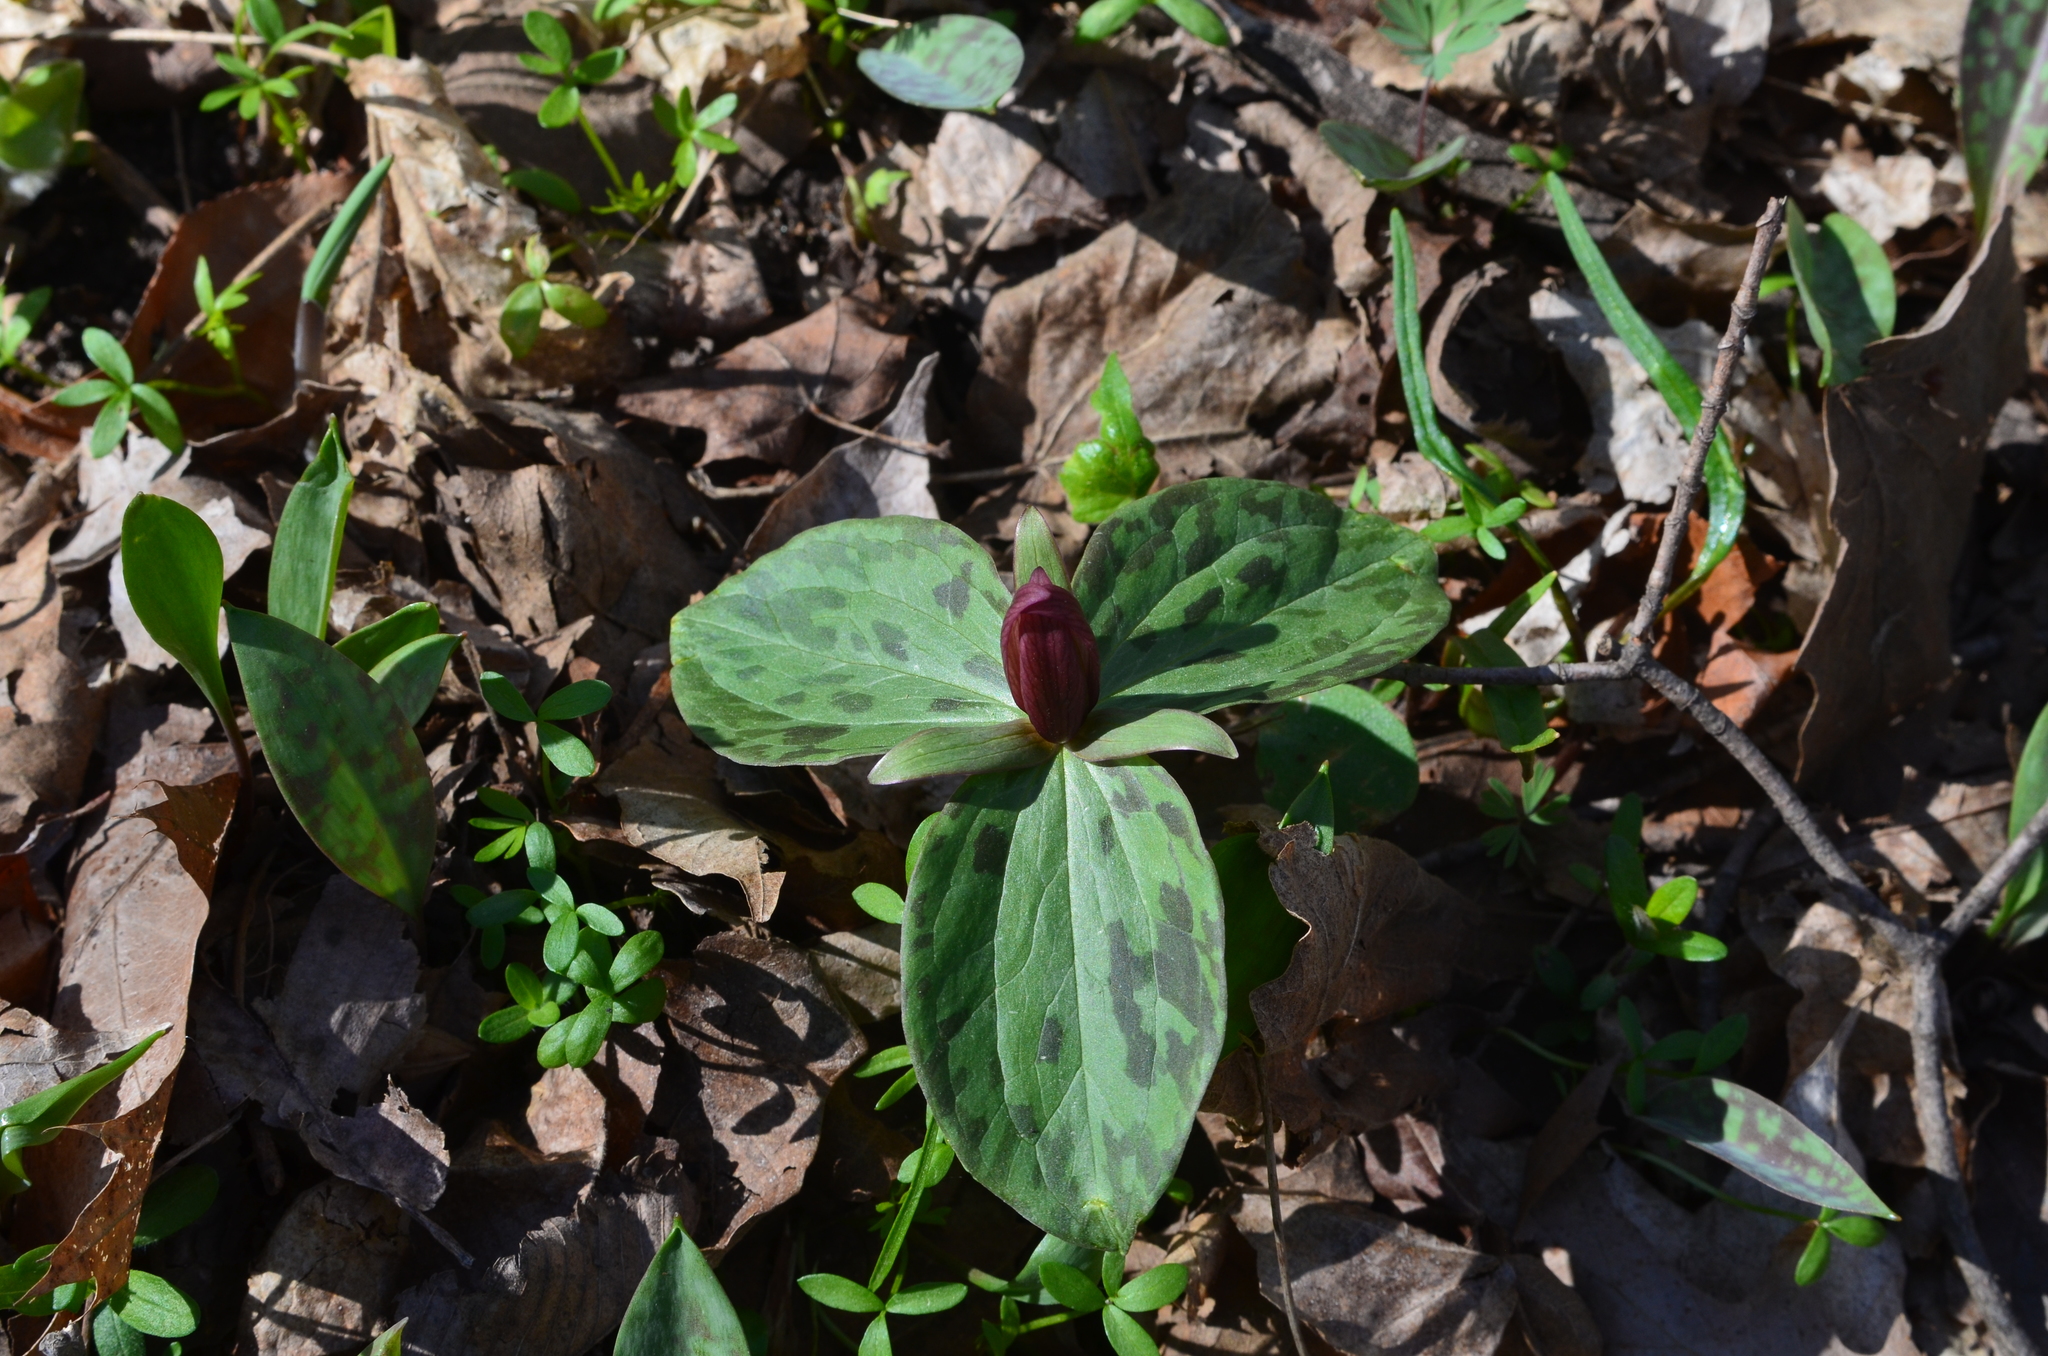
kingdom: Plantae
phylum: Tracheophyta
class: Liliopsida
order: Liliales
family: Melanthiaceae
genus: Trillium
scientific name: Trillium sessile
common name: Sessile trillium
